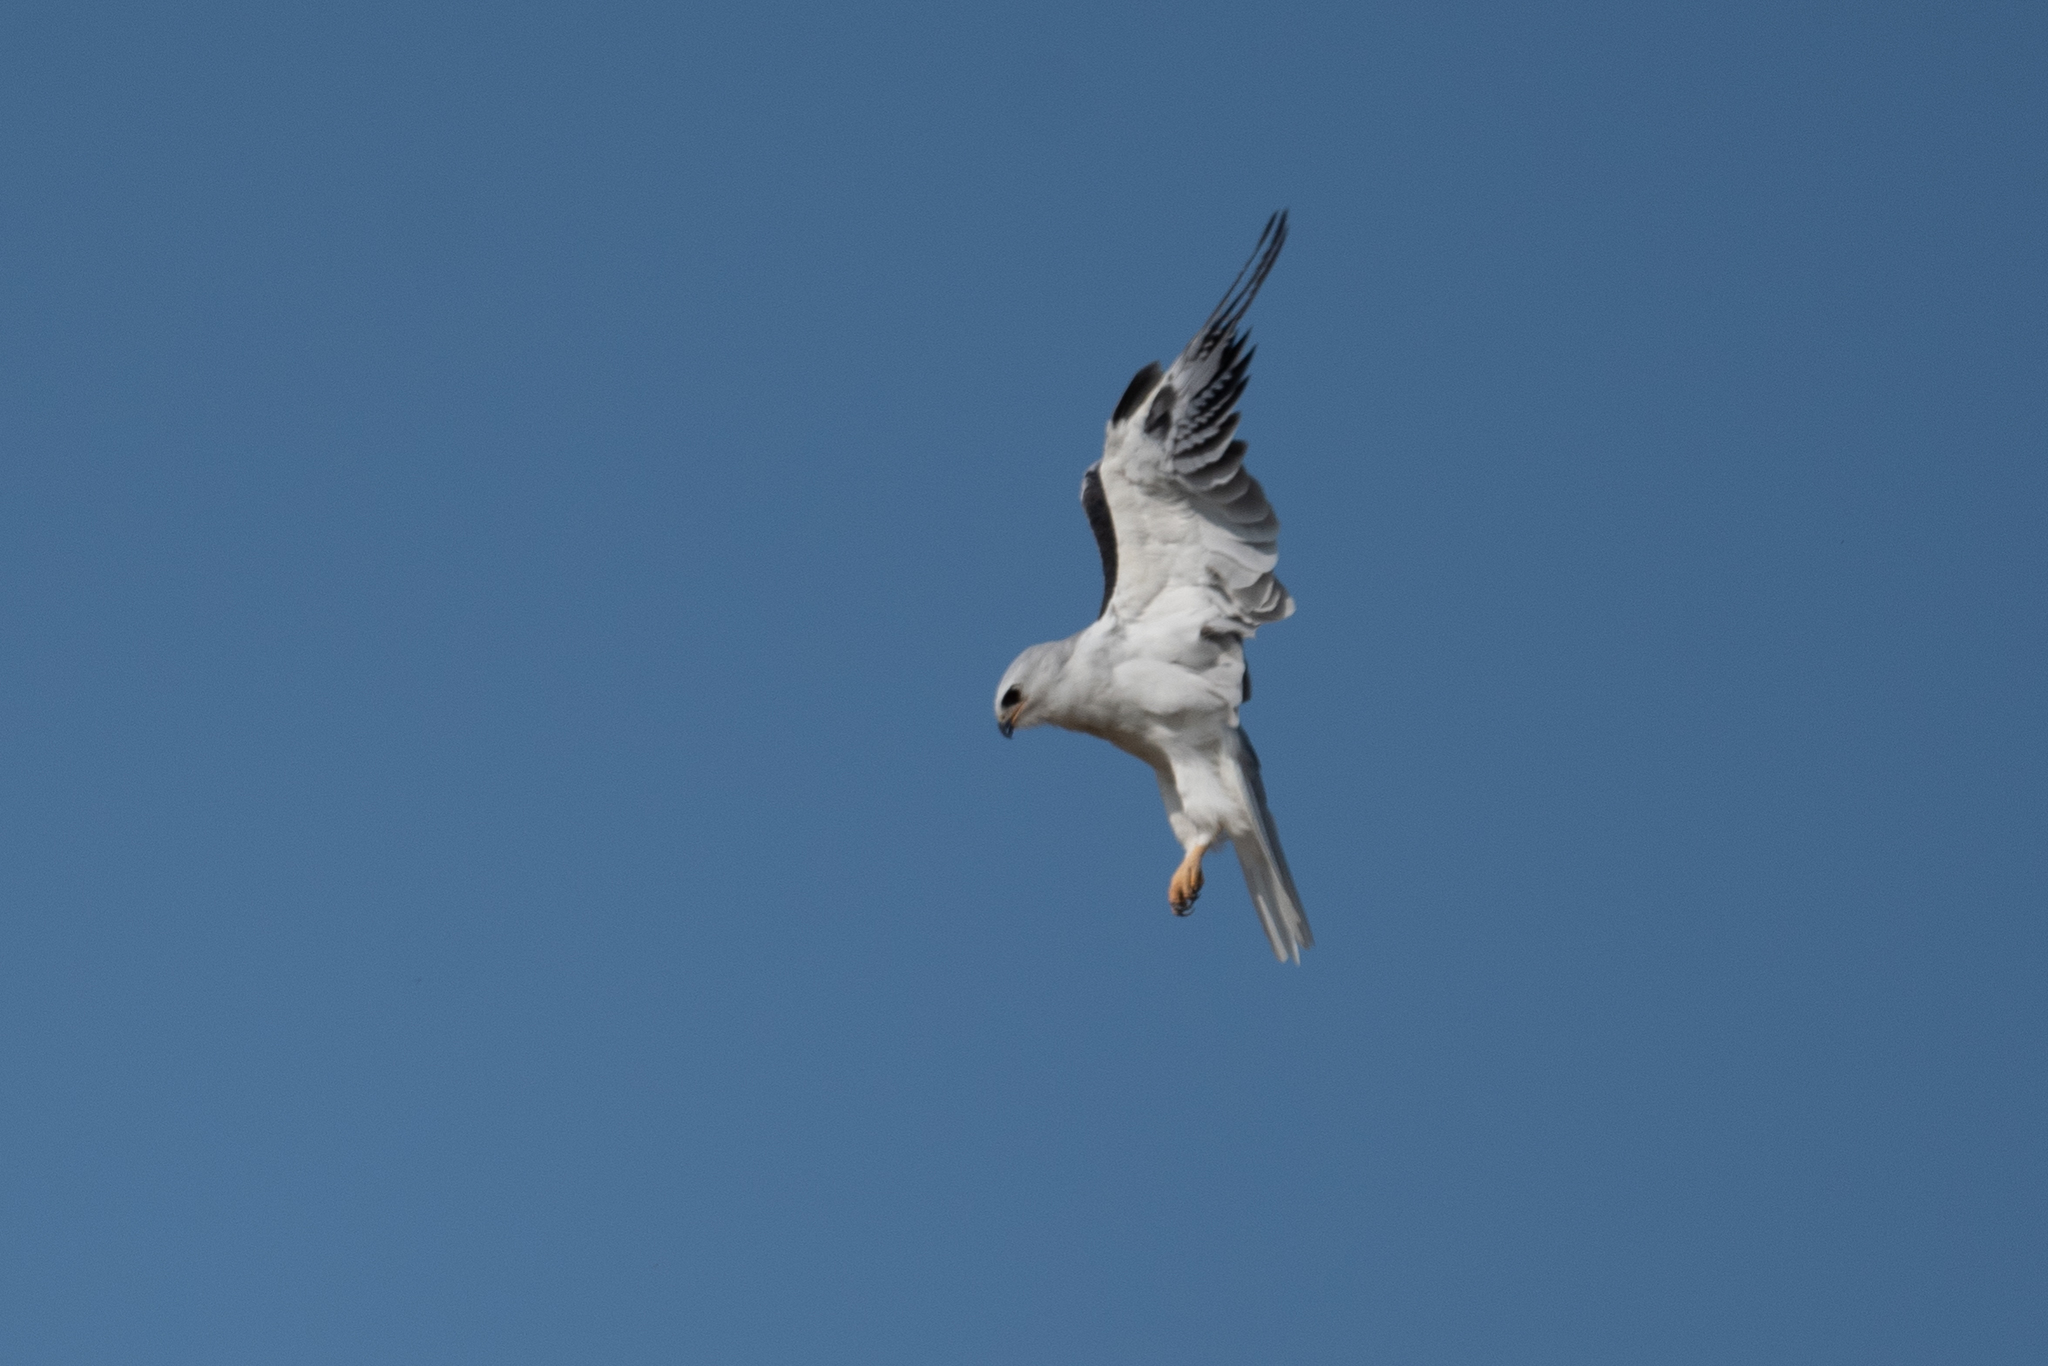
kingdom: Animalia
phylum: Chordata
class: Aves
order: Accipitriformes
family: Accipitridae
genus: Elanus
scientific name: Elanus leucurus
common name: White-tailed kite
